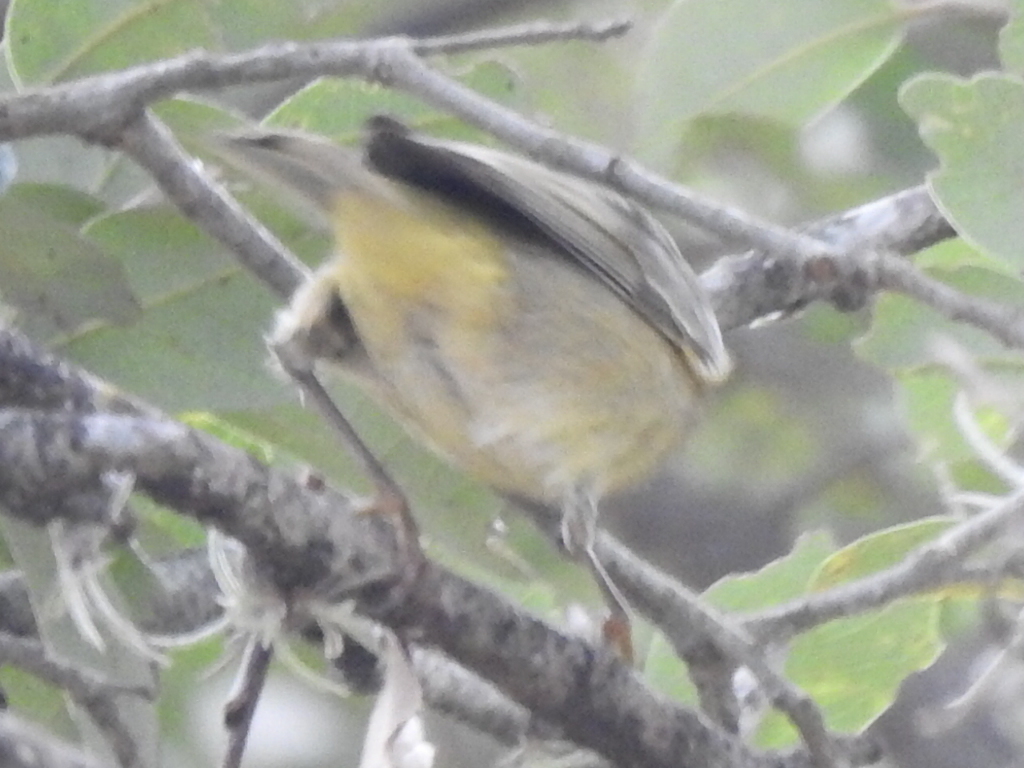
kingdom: Animalia
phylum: Chordata
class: Aves
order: Passeriformes
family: Parulidae
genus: Leiothlypis
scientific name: Leiothlypis celata
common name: Orange-crowned warbler
